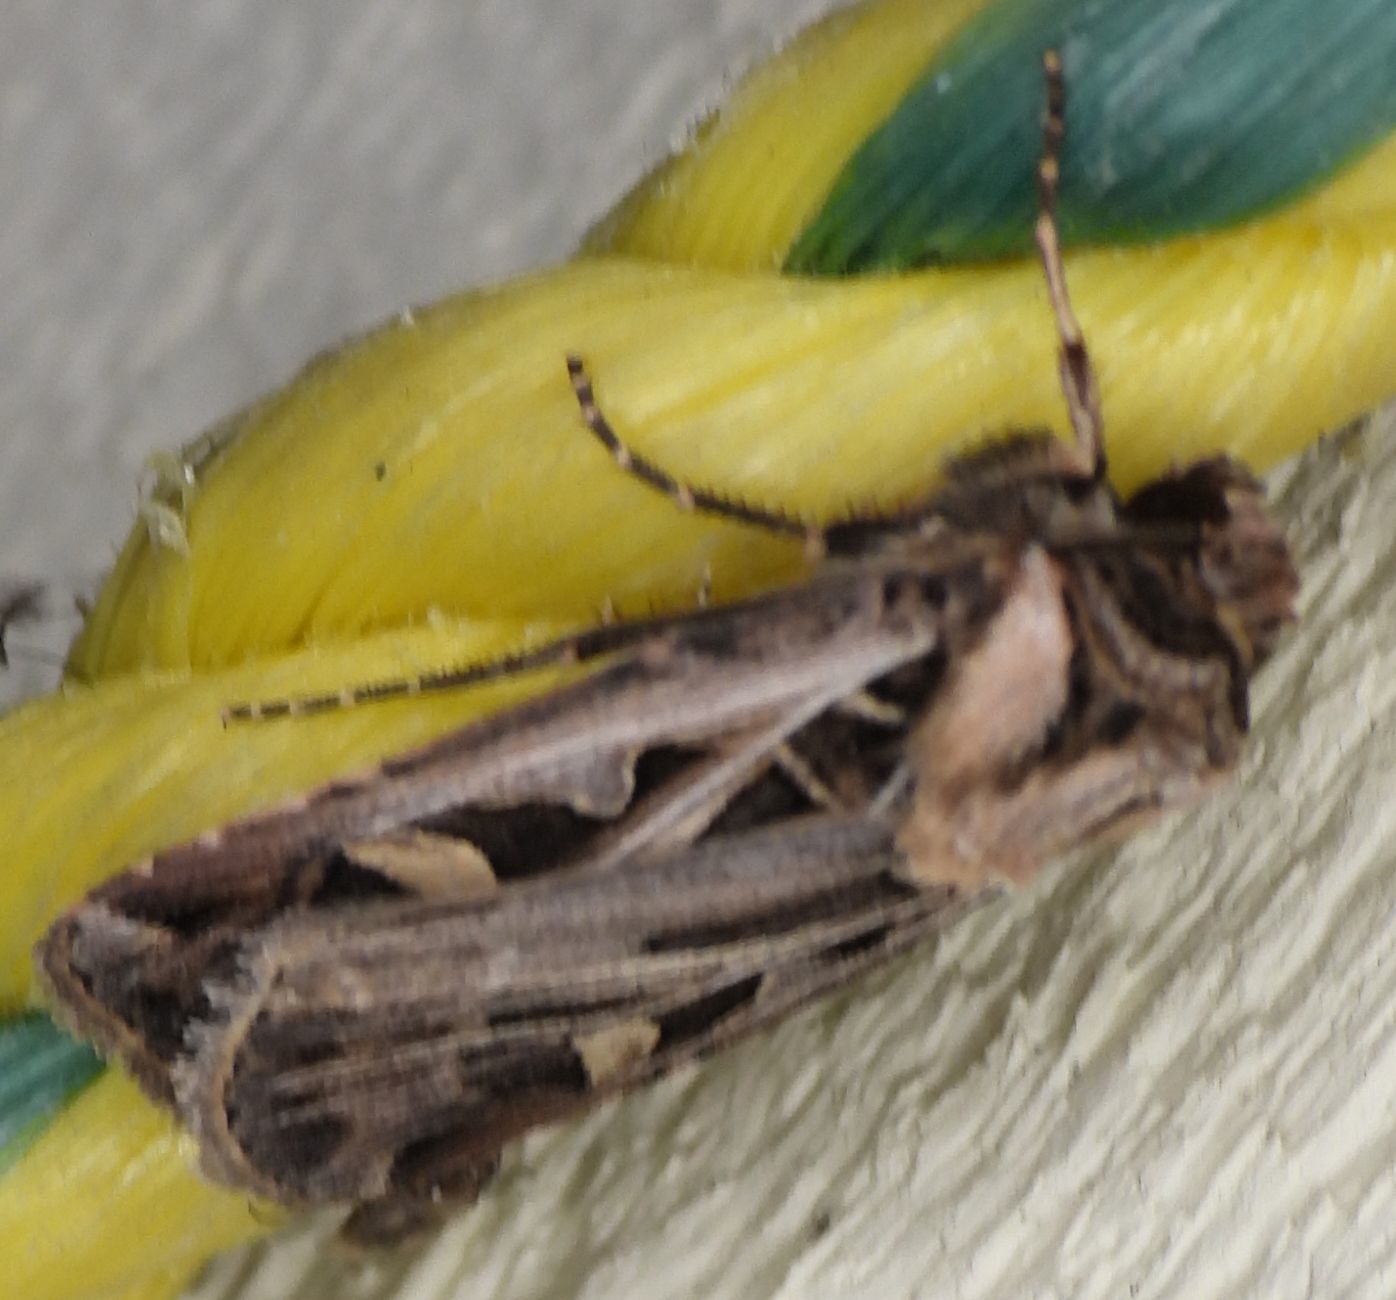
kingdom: Animalia
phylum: Arthropoda
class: Insecta
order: Lepidoptera
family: Noctuidae
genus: Feltia
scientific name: Feltia jaculifera
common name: Dingy cutworm moth
